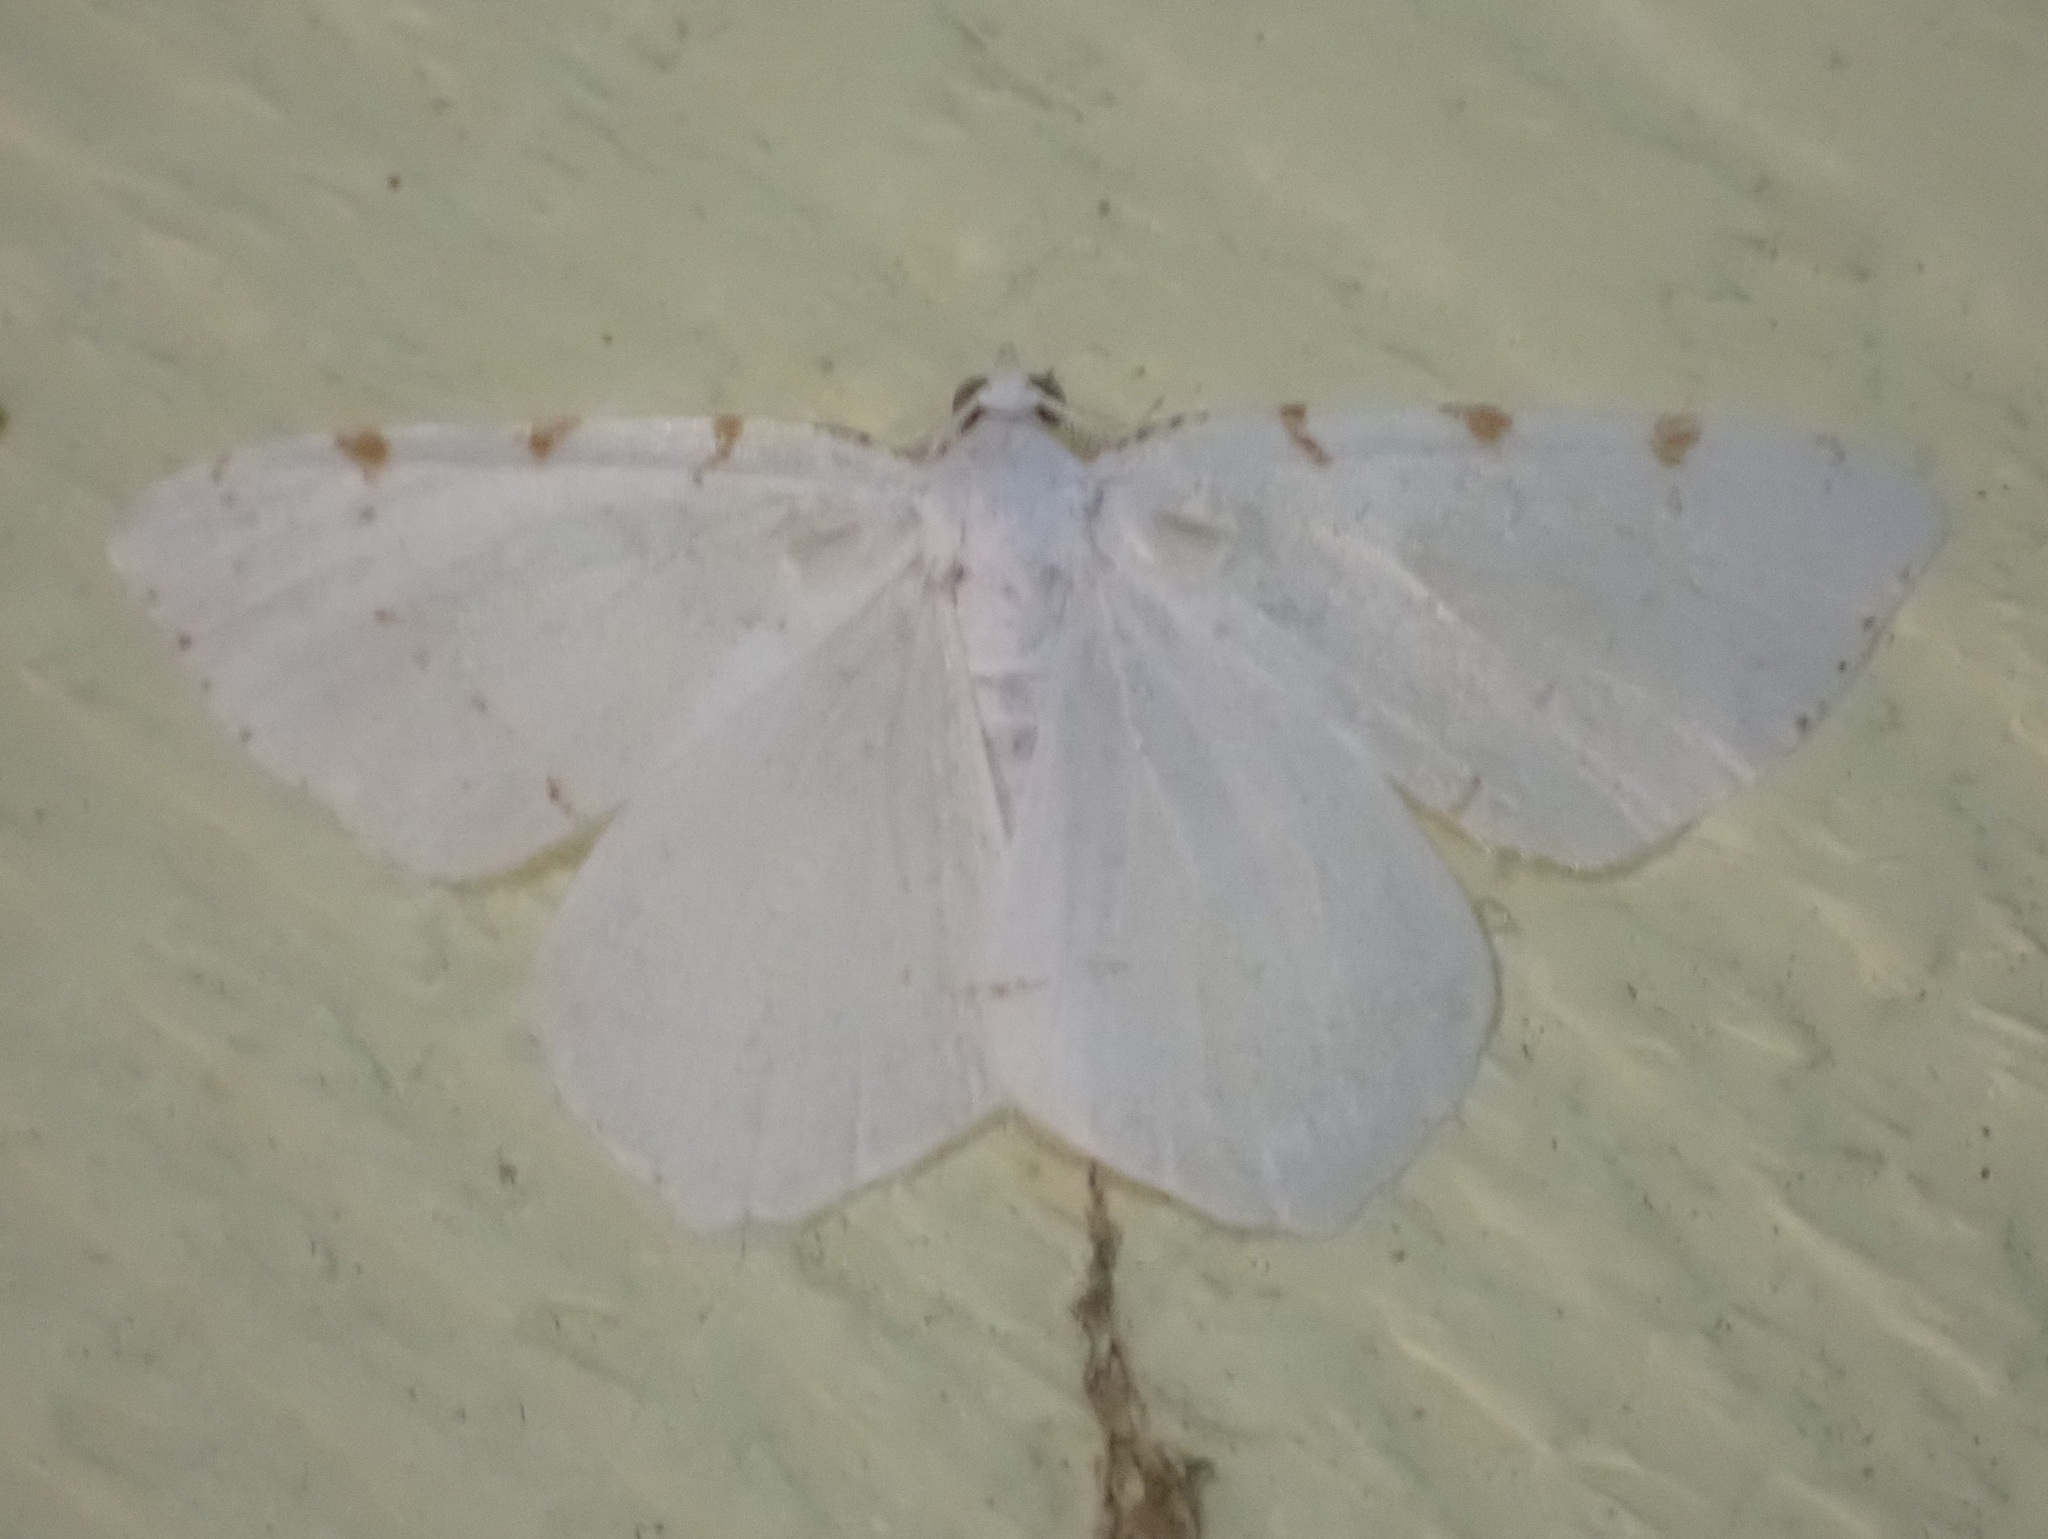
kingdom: Animalia
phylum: Arthropoda
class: Insecta
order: Lepidoptera
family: Geometridae
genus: Macaria
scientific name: Macaria pustularia
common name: Lesser maple spanworm moth
